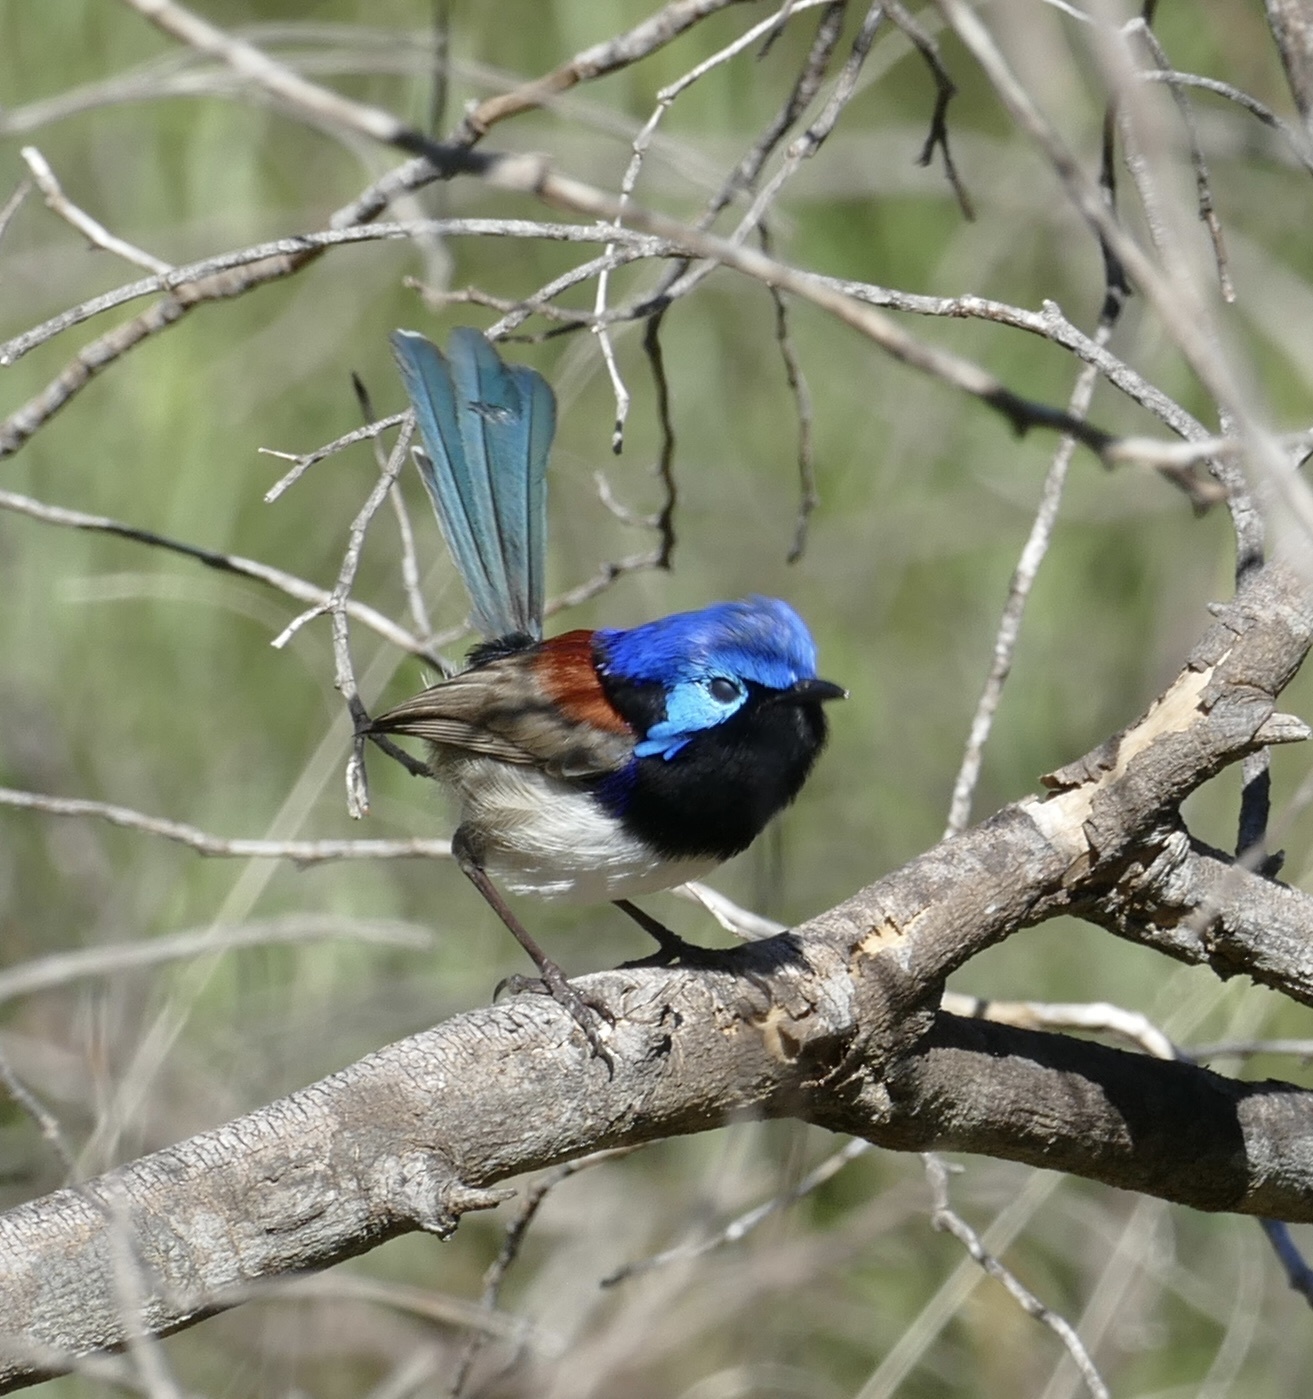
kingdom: Animalia
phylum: Chordata
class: Aves
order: Passeriformes
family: Maluridae
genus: Malurus
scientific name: Malurus assimilis
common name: Purple-backed fairywren
